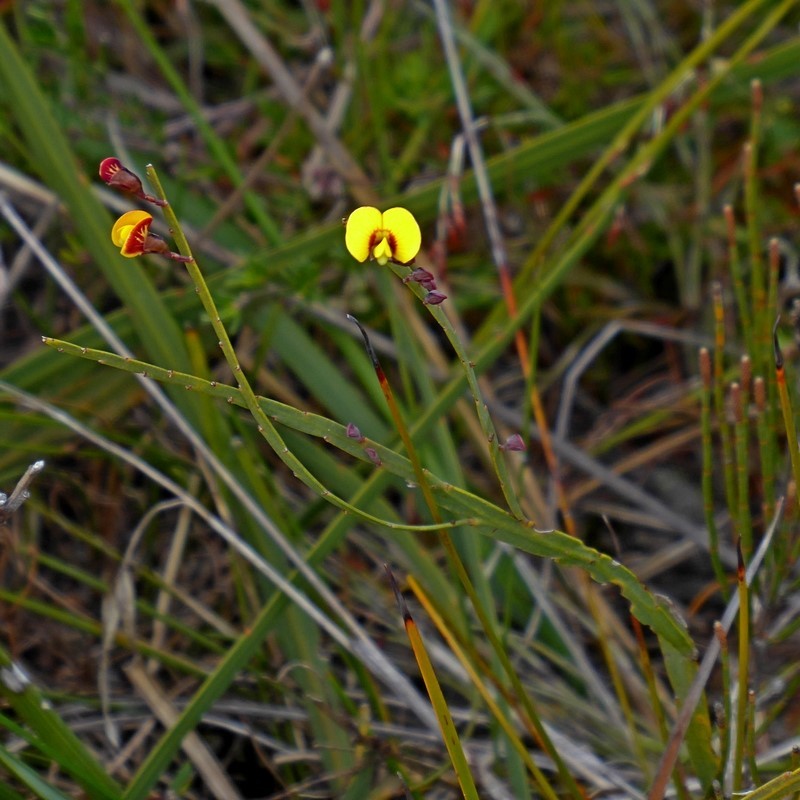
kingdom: Plantae
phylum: Tracheophyta
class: Magnoliopsida
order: Fabales
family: Fabaceae
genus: Bossiaea
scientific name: Bossiaea ensata
